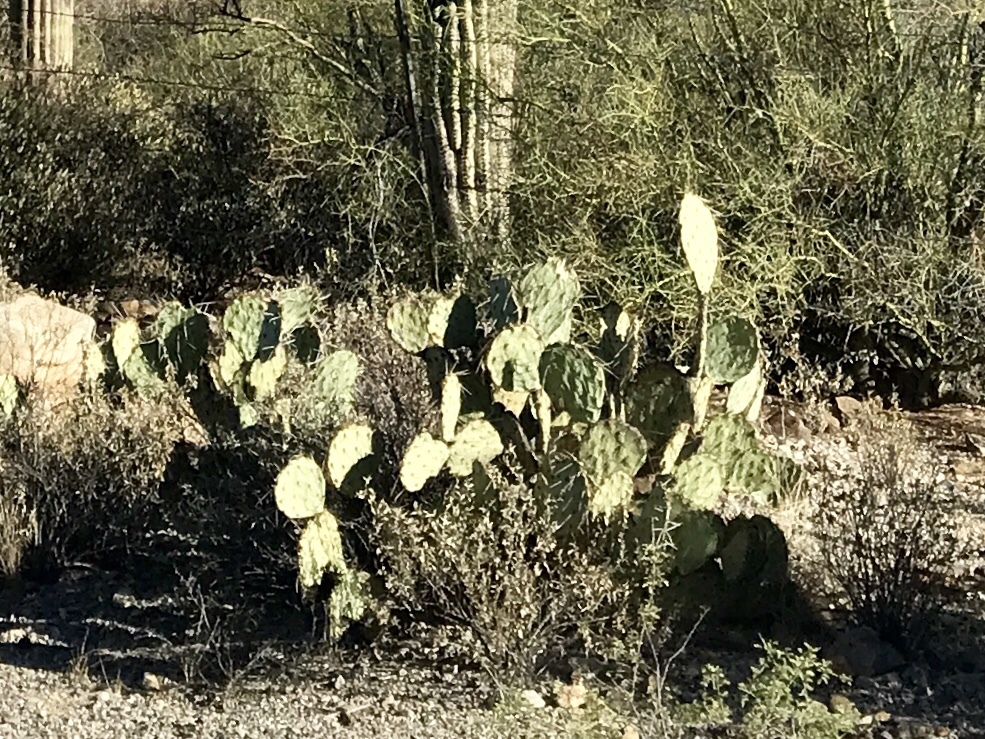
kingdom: Plantae
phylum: Tracheophyta
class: Magnoliopsida
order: Caryophyllales
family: Cactaceae
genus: Opuntia
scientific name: Opuntia engelmannii
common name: Cactus-apple
